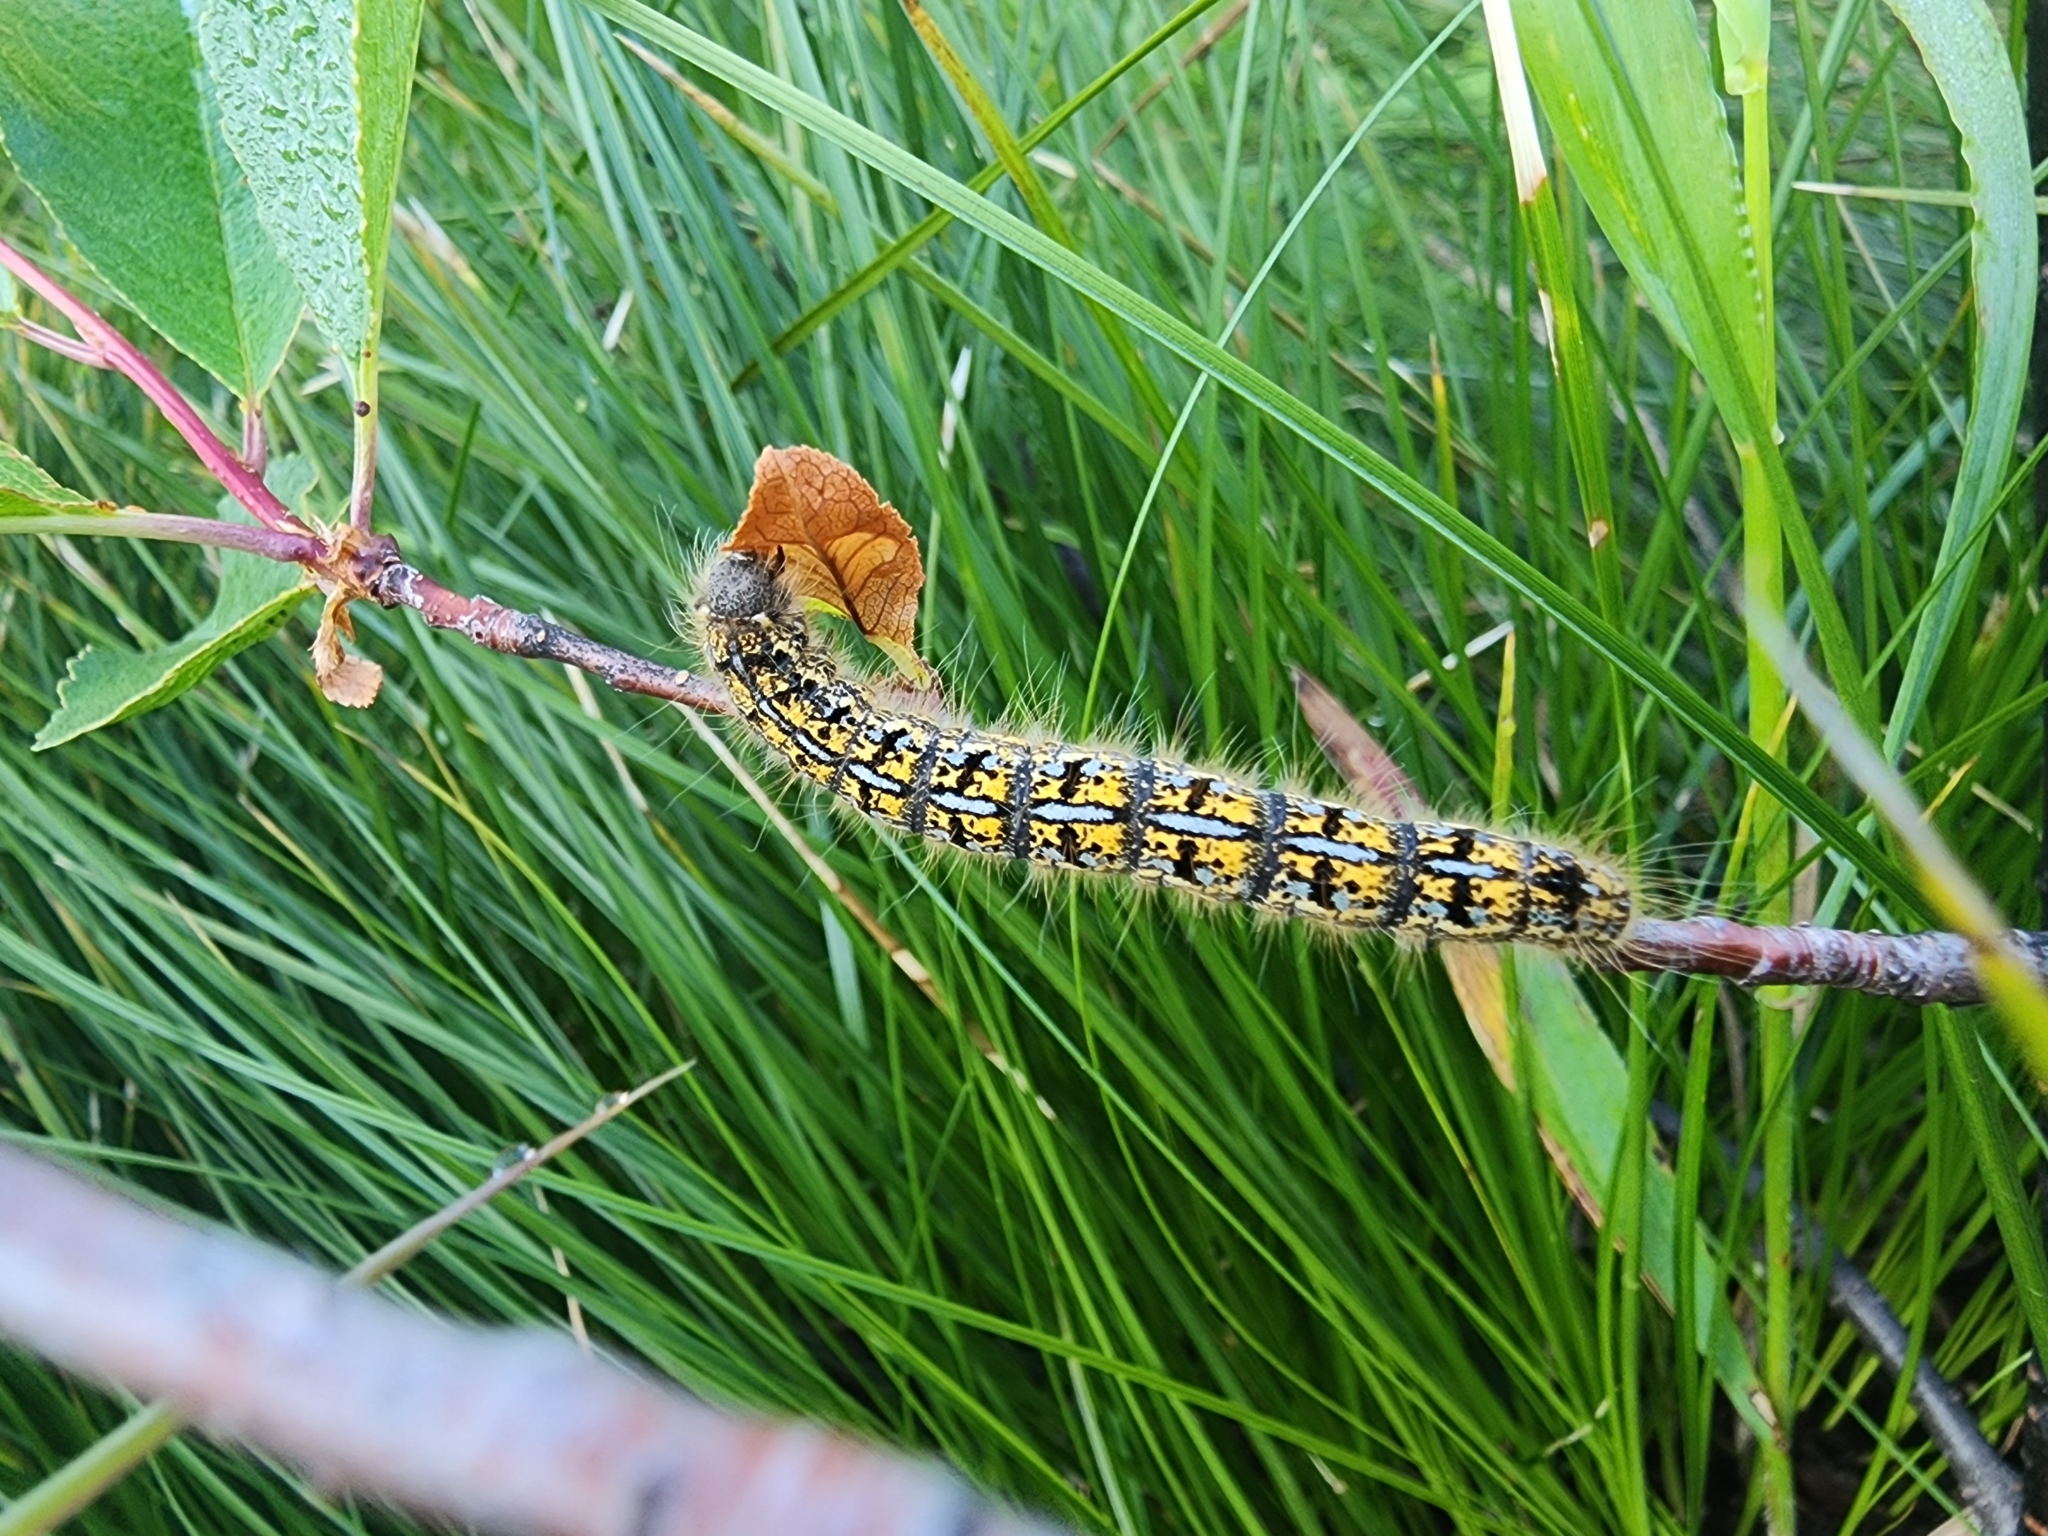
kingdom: Animalia
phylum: Arthropoda
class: Insecta
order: Lepidoptera
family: Lasiocampidae
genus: Malacosoma
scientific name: Malacosoma californica
